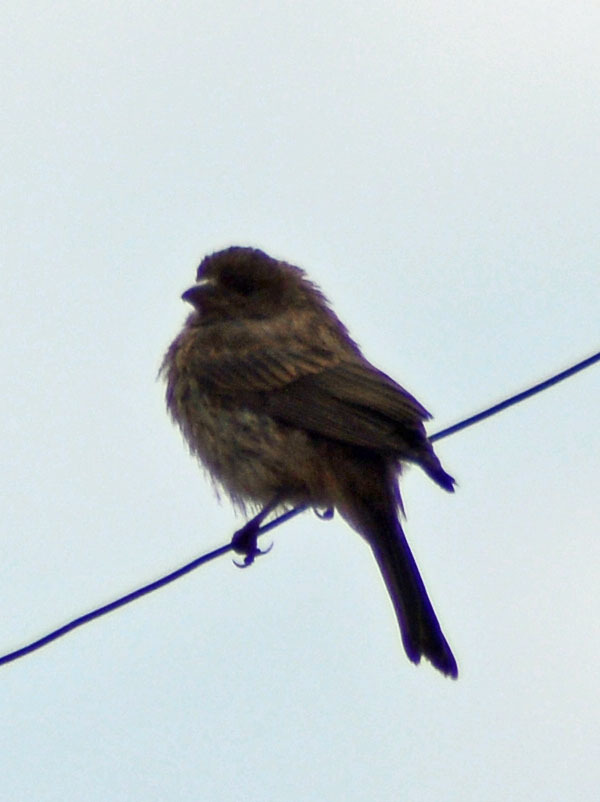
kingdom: Animalia
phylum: Chordata
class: Aves
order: Passeriformes
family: Fringillidae
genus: Haemorhous
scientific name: Haemorhous mexicanus
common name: House finch
